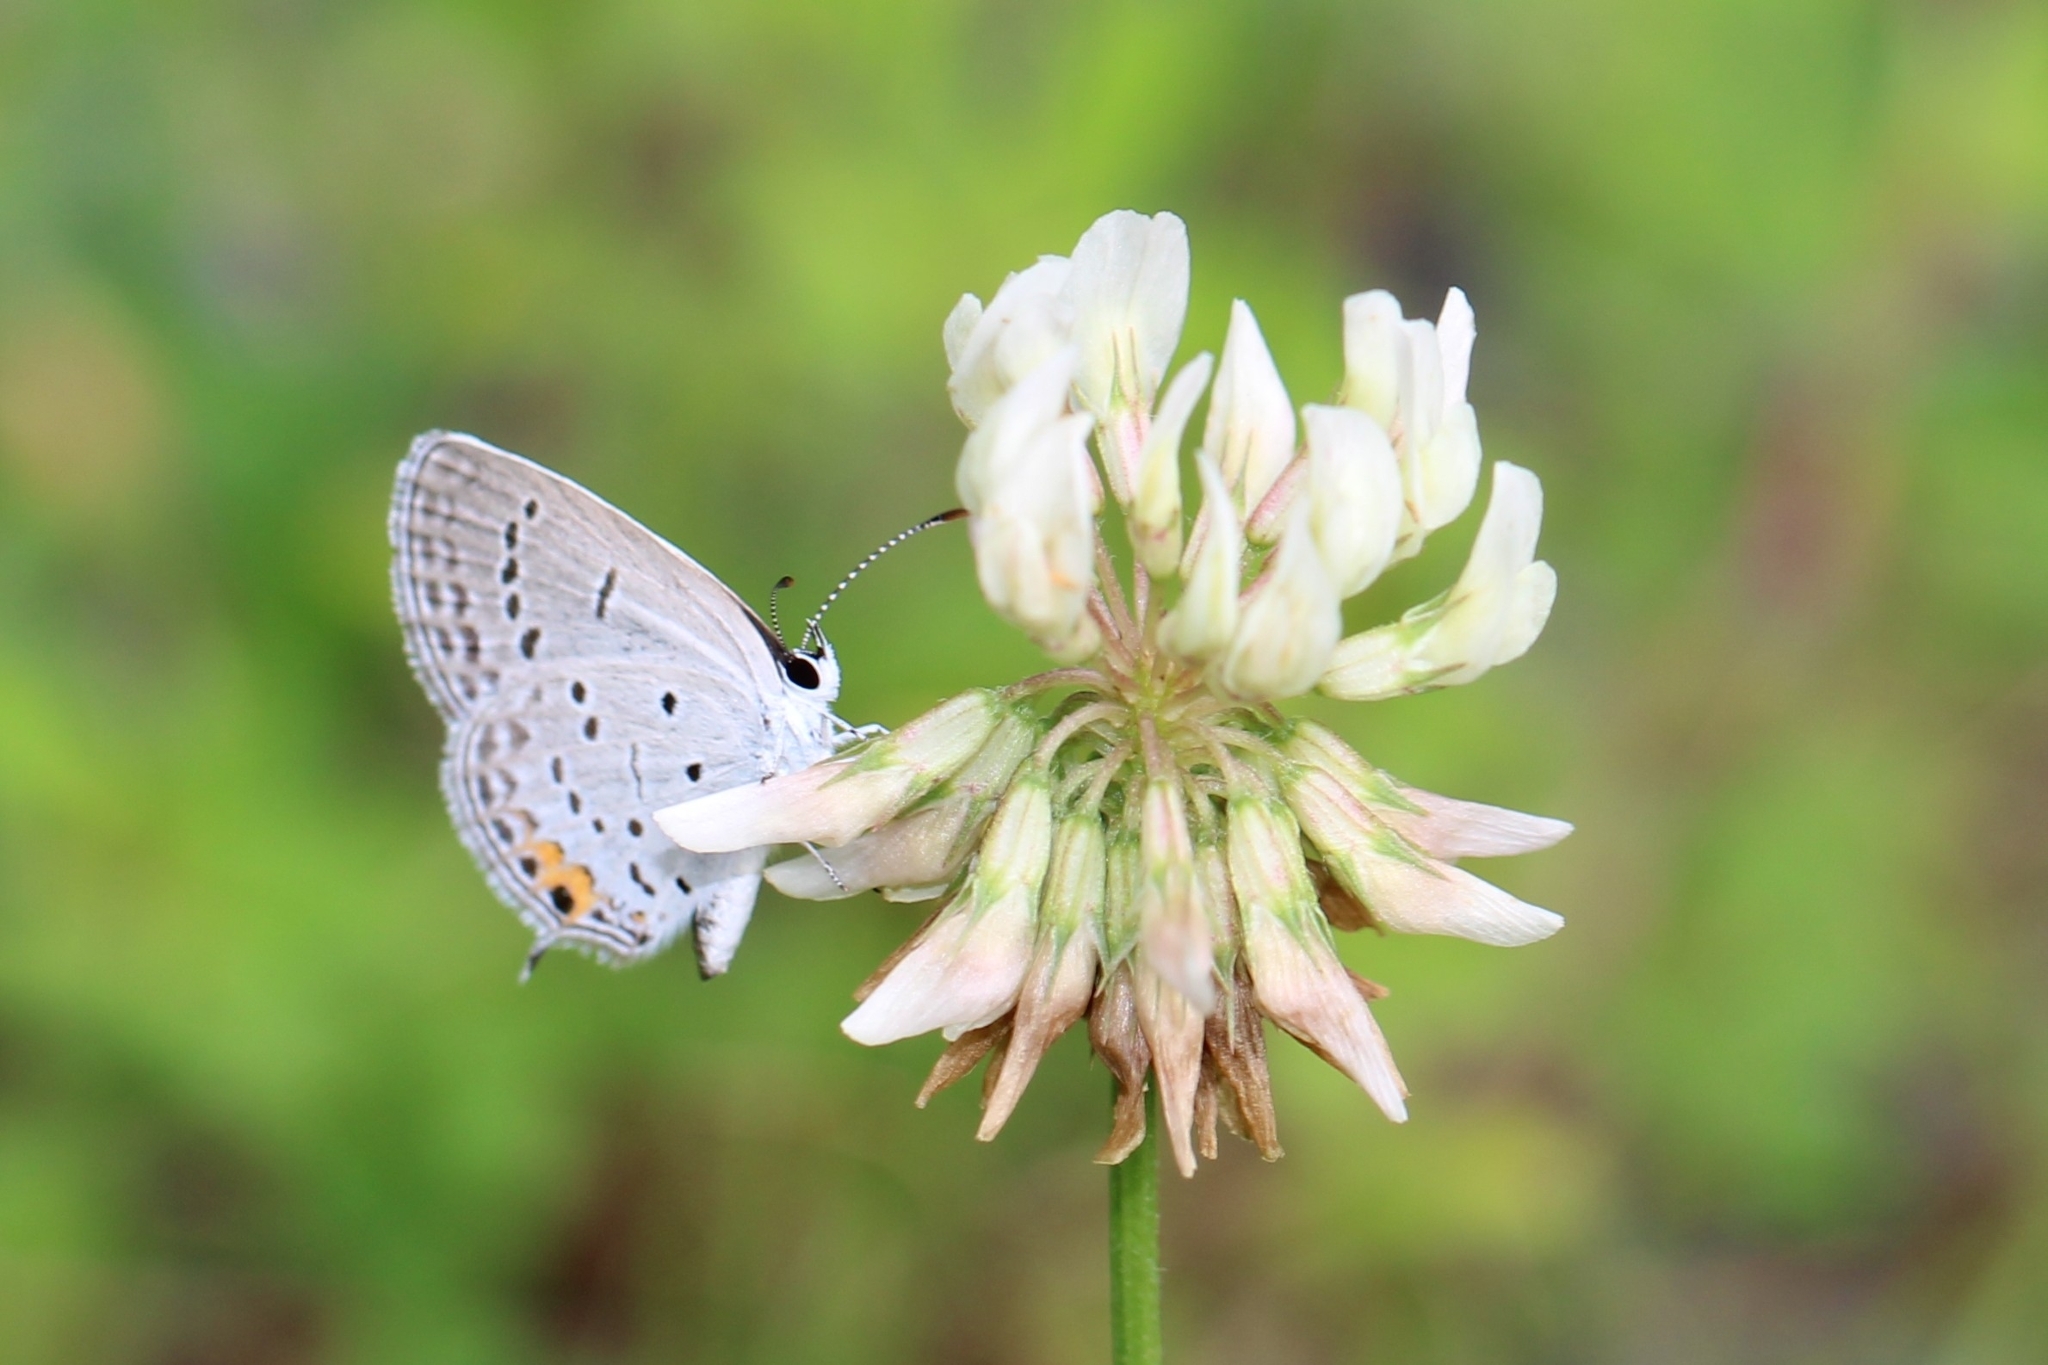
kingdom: Animalia
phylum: Arthropoda
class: Insecta
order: Lepidoptera
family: Lycaenidae
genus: Elkalyce
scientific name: Elkalyce comyntas
